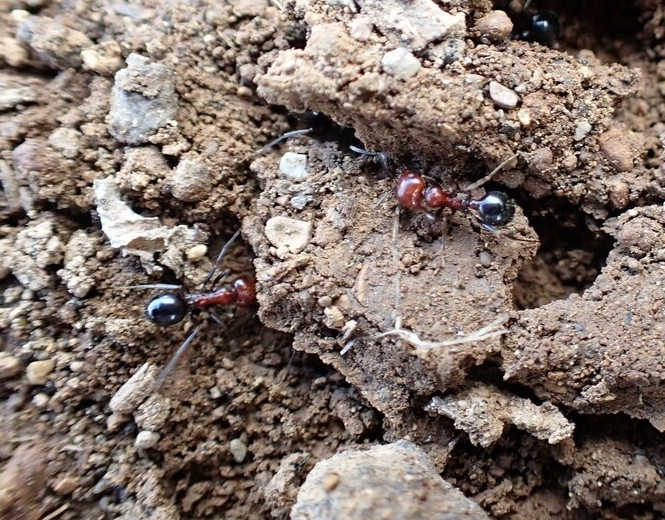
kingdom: Animalia
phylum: Arthropoda
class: Insecta
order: Hymenoptera
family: Formicidae
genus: Messor
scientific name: Messor minor
